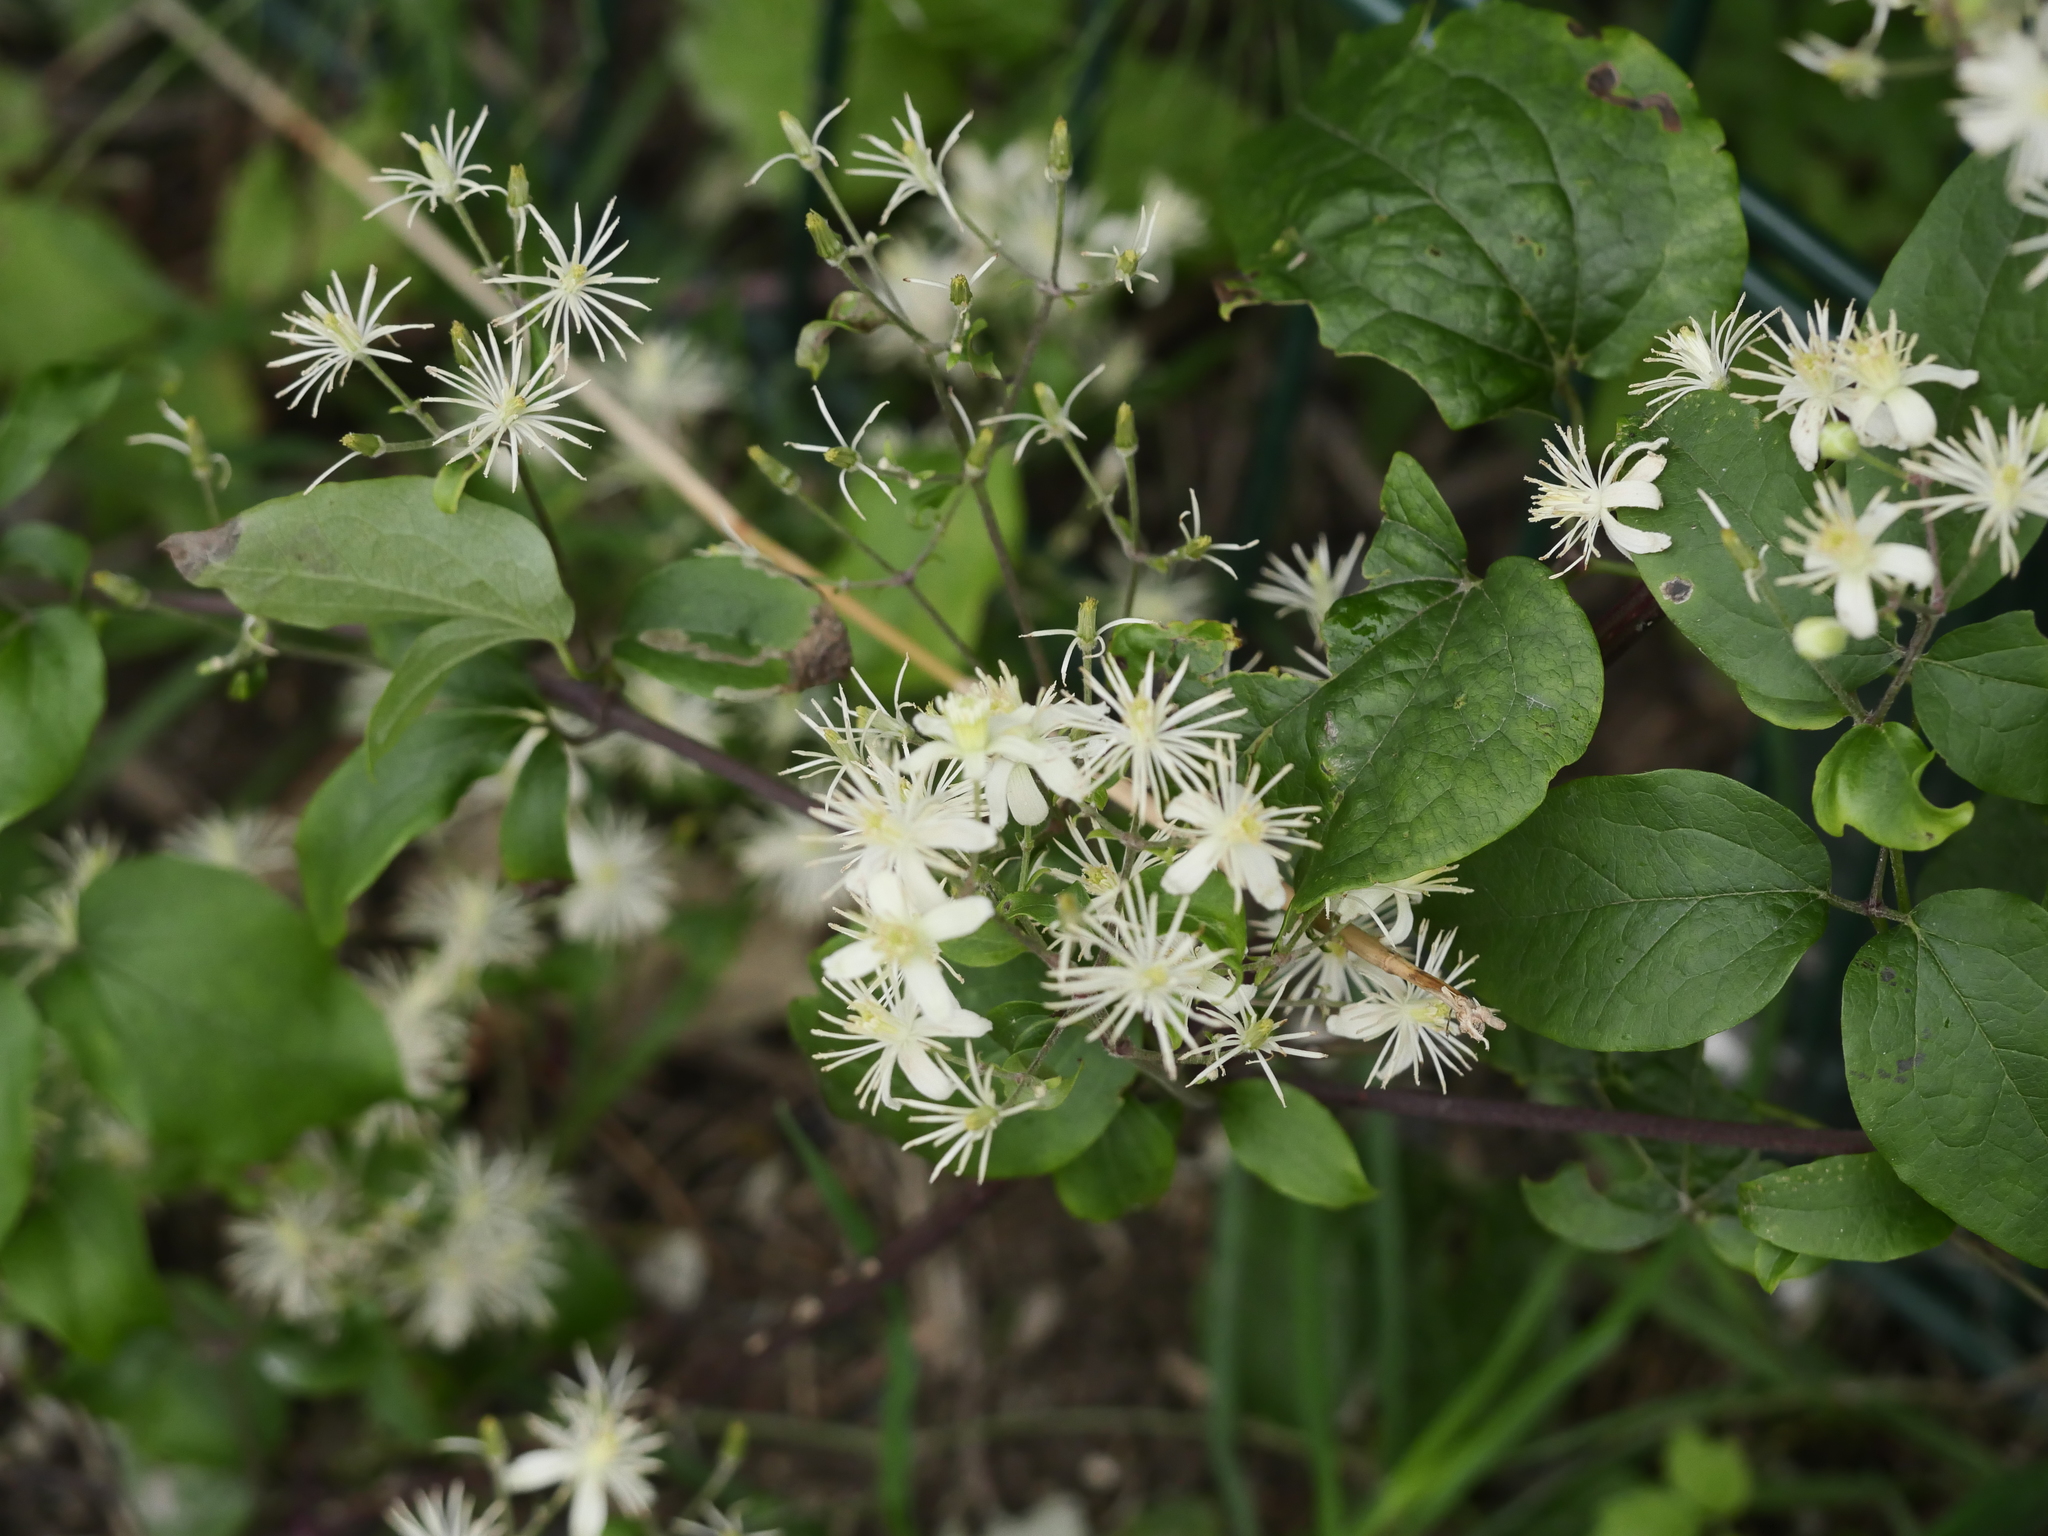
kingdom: Plantae
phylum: Tracheophyta
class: Magnoliopsida
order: Ranunculales
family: Ranunculaceae
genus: Clematis
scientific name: Clematis vitalba
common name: Evergreen clematis
